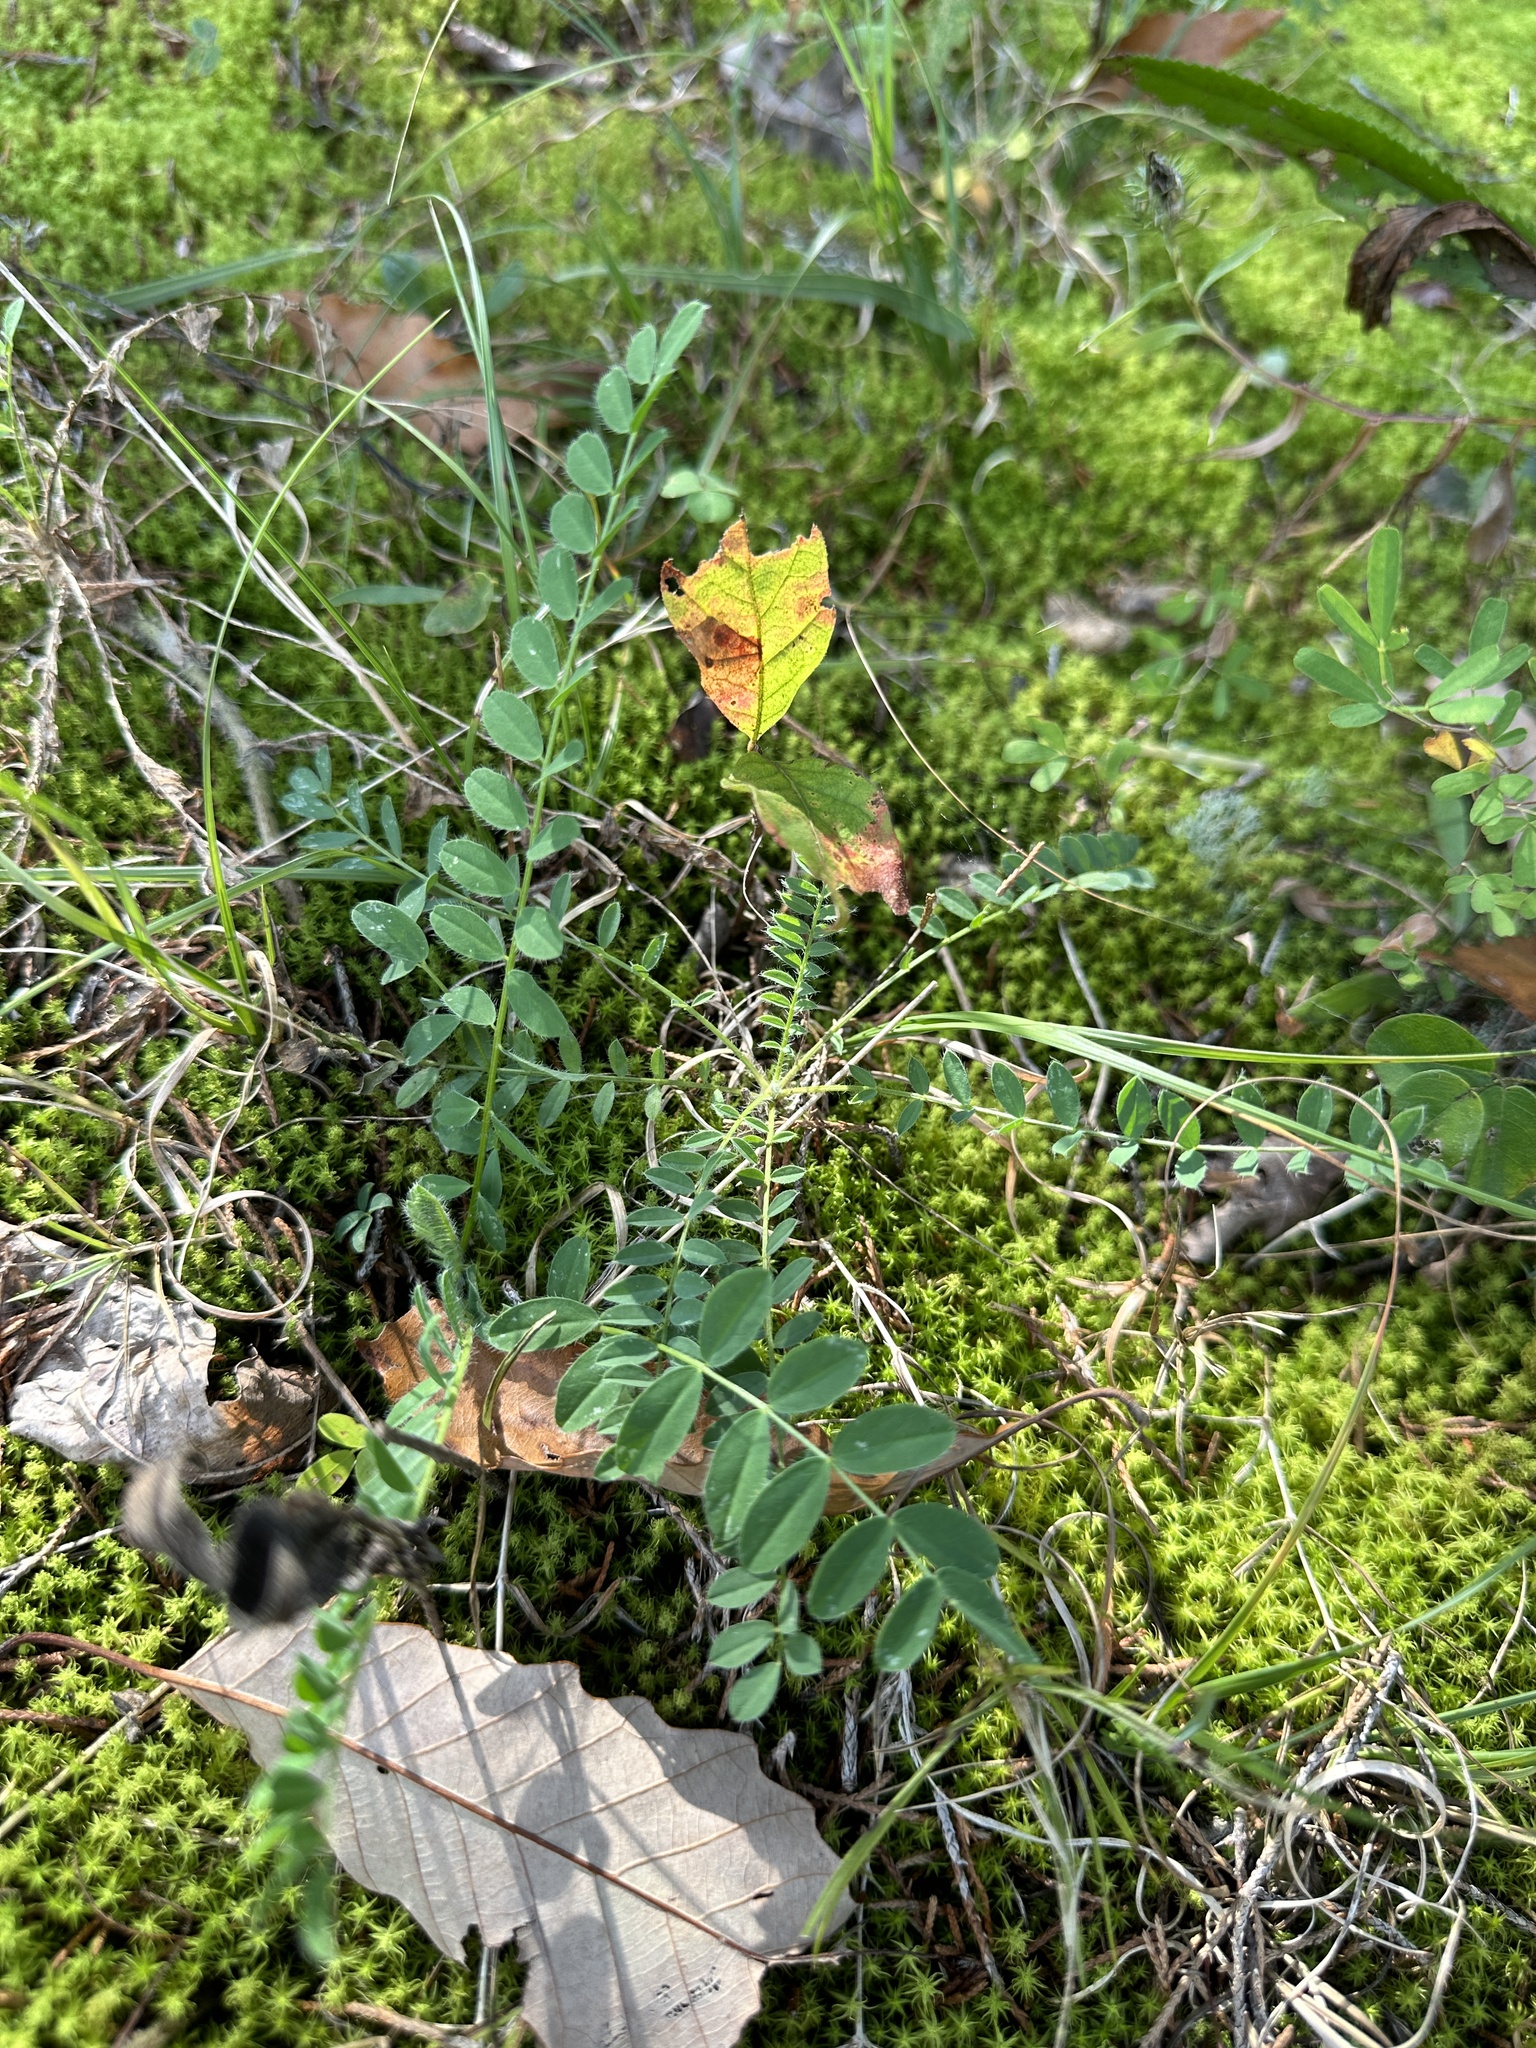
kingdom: Plantae
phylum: Tracheophyta
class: Magnoliopsida
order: Fabales
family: Fabaceae
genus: Astragalus
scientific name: Astragalus tennesseensis
